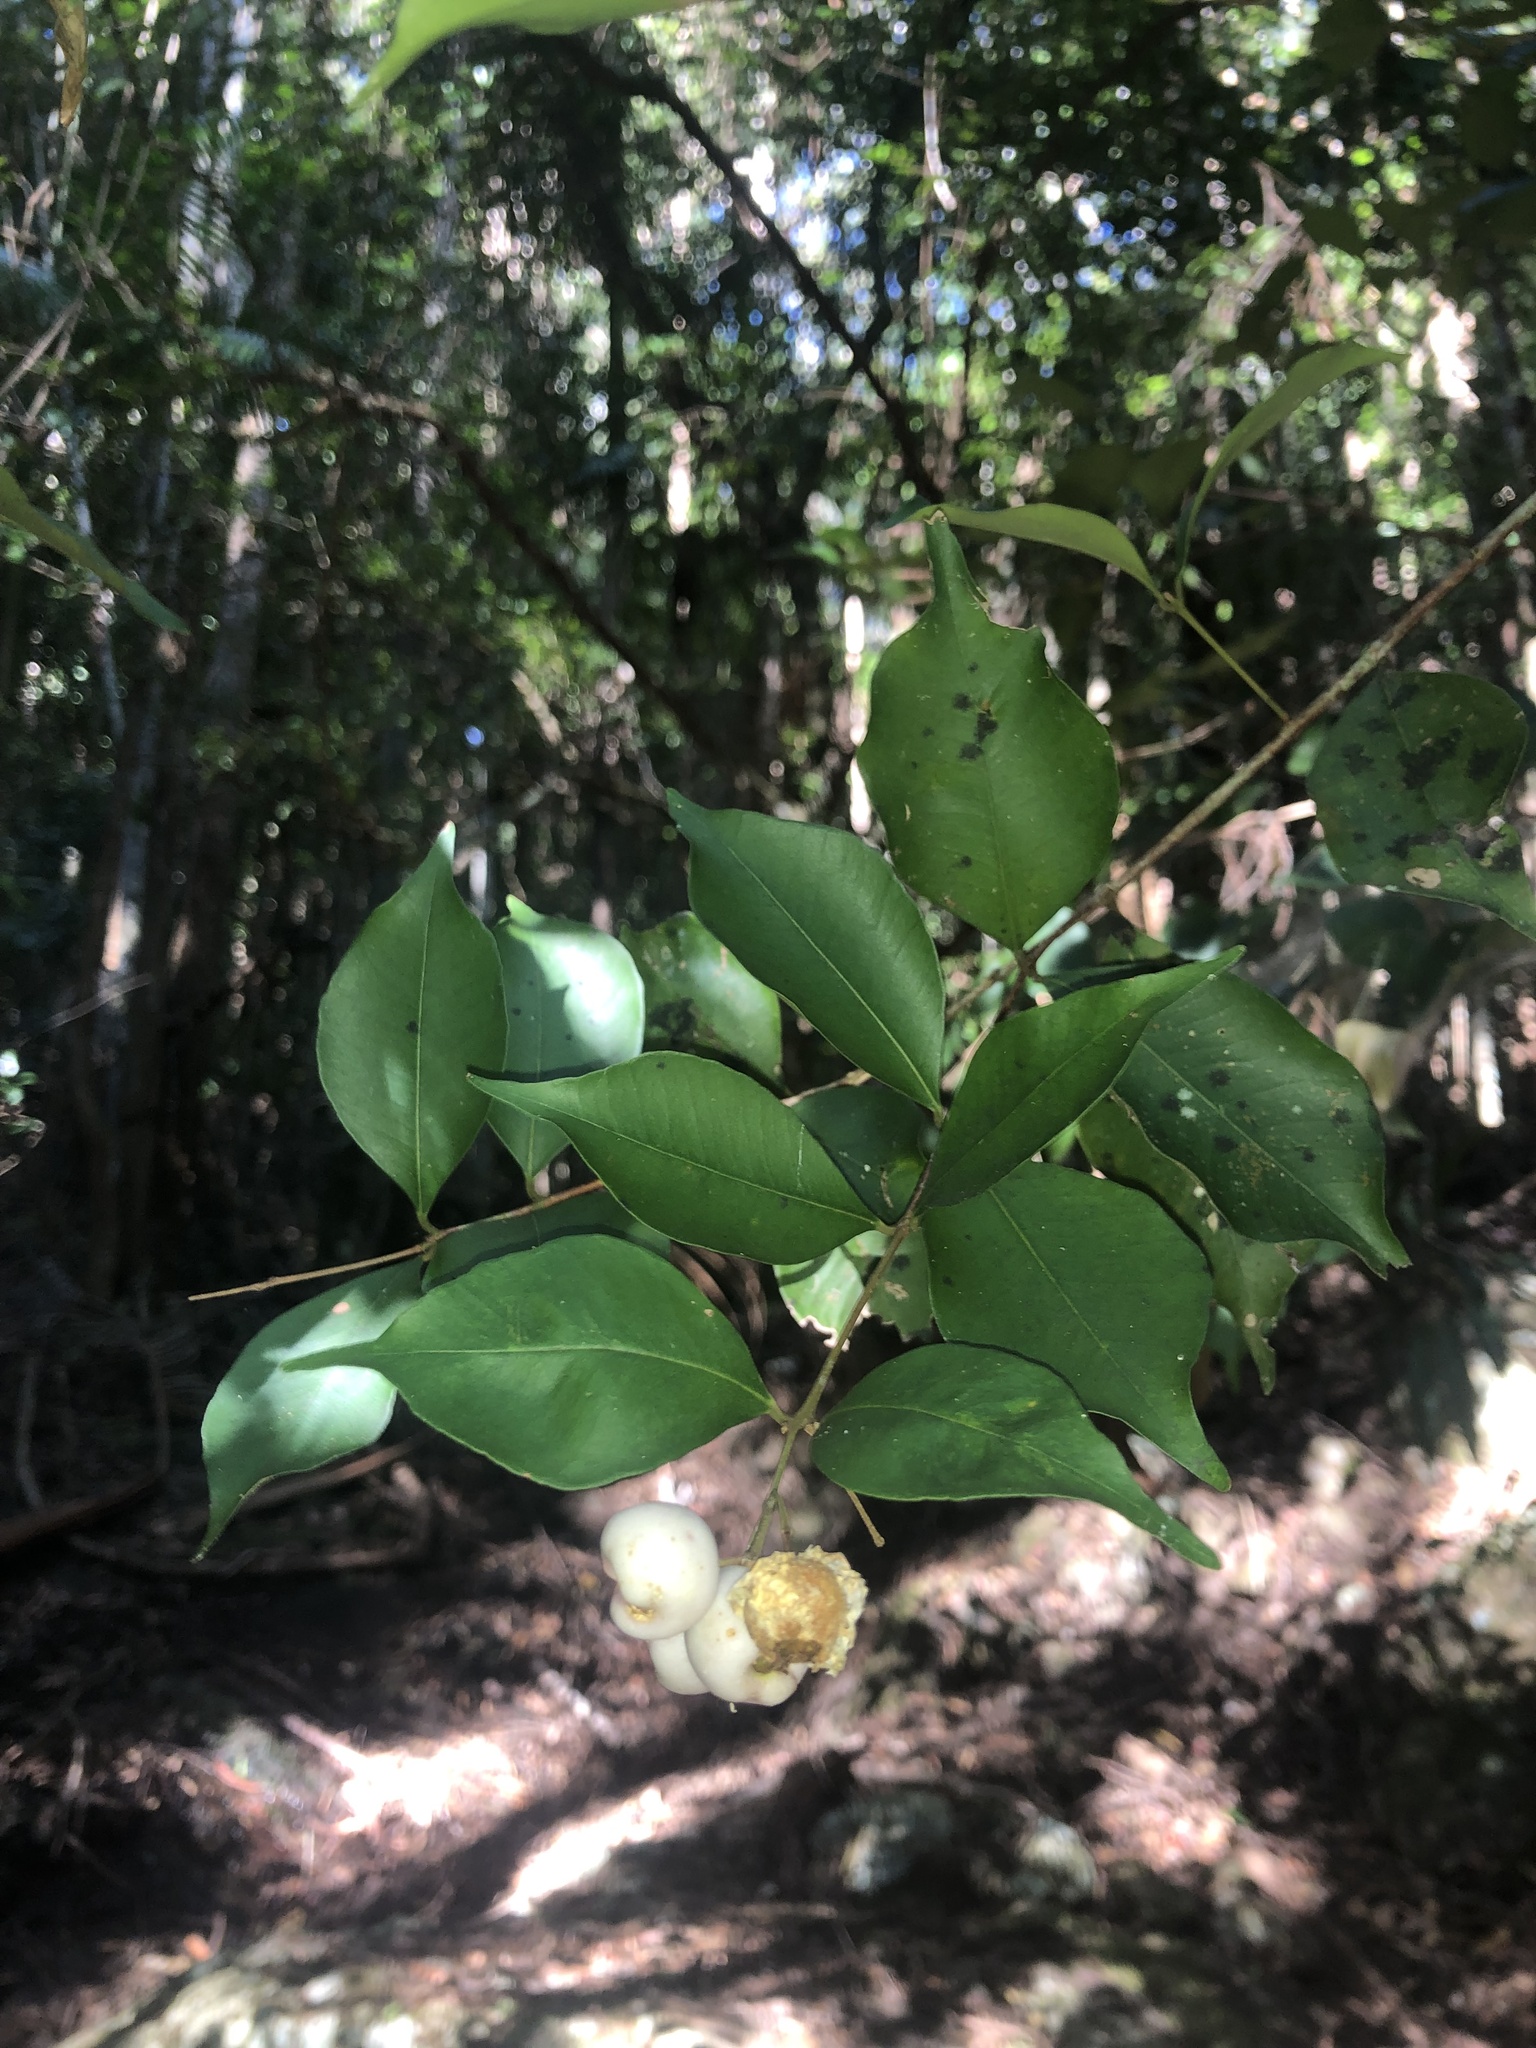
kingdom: Plantae
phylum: Tracheophyta
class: Magnoliopsida
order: Myrtales
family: Myrtaceae
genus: Syzygium
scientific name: Syzygium smithii
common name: Lilly-pilly
